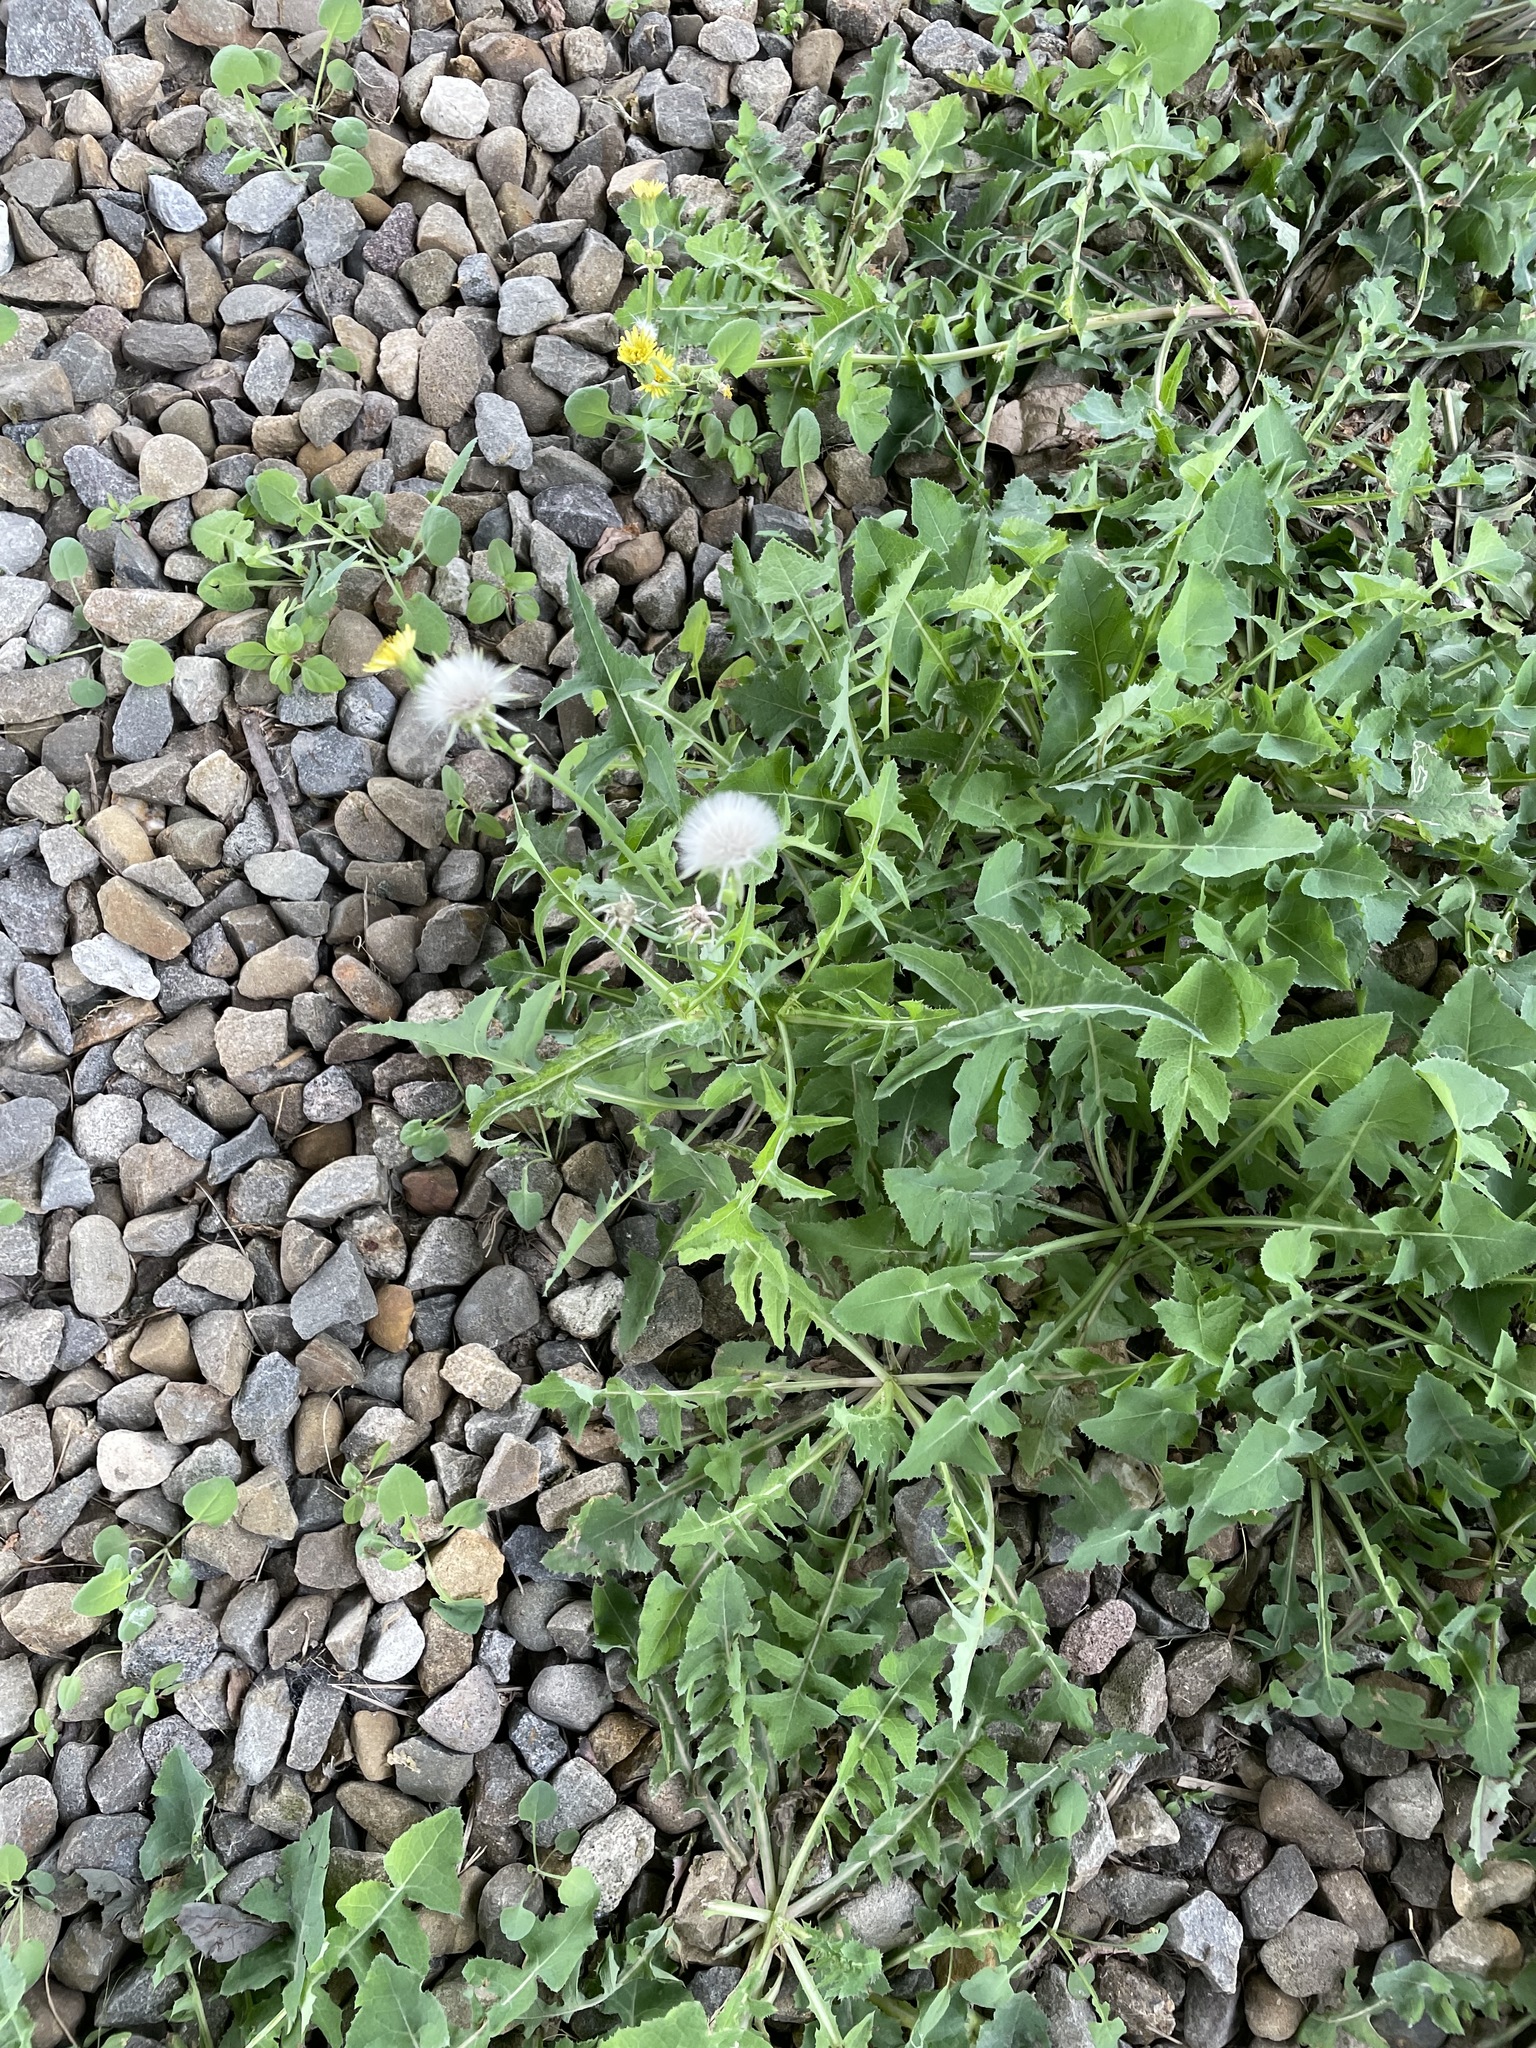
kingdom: Plantae
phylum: Tracheophyta
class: Magnoliopsida
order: Asterales
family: Asteraceae
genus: Sonchus
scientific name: Sonchus oleraceus
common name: Common sowthistle
